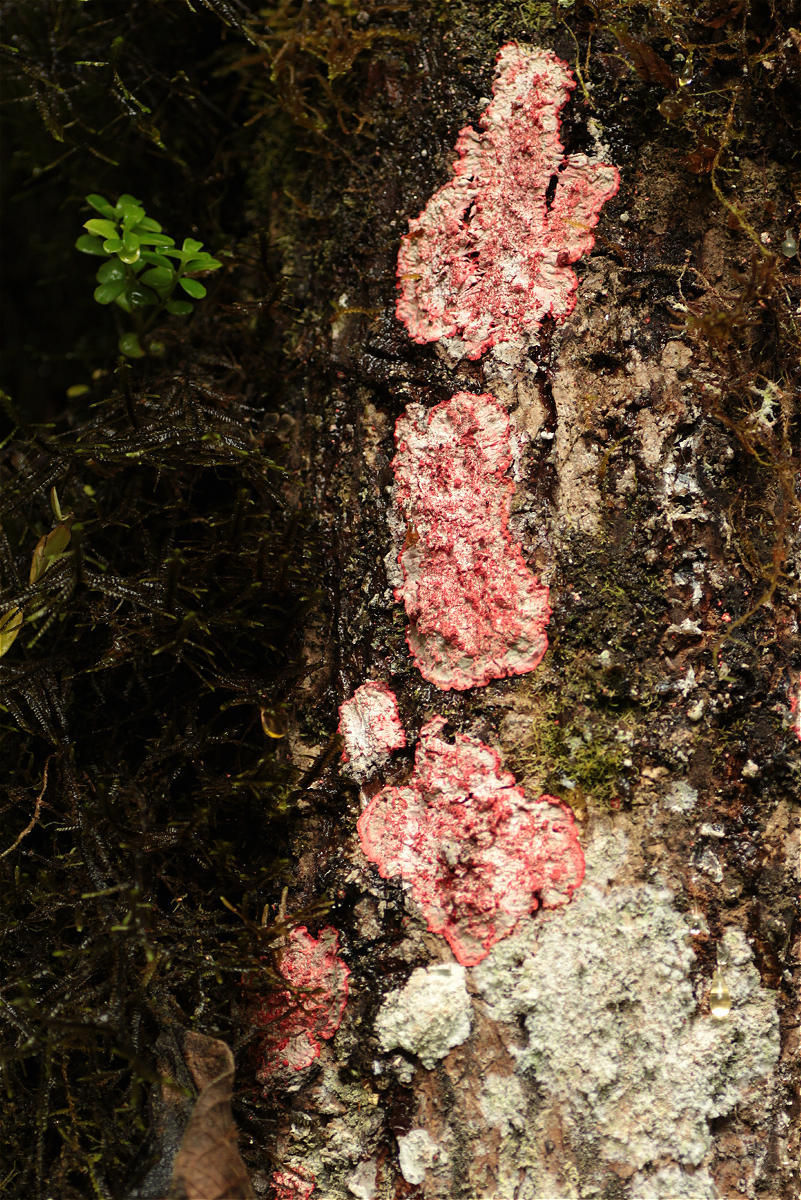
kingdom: Fungi
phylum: Ascomycota
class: Arthoniomycetes
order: Arthoniales
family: Arthoniaceae
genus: Herpothallon
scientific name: Herpothallon rubrocinctum
